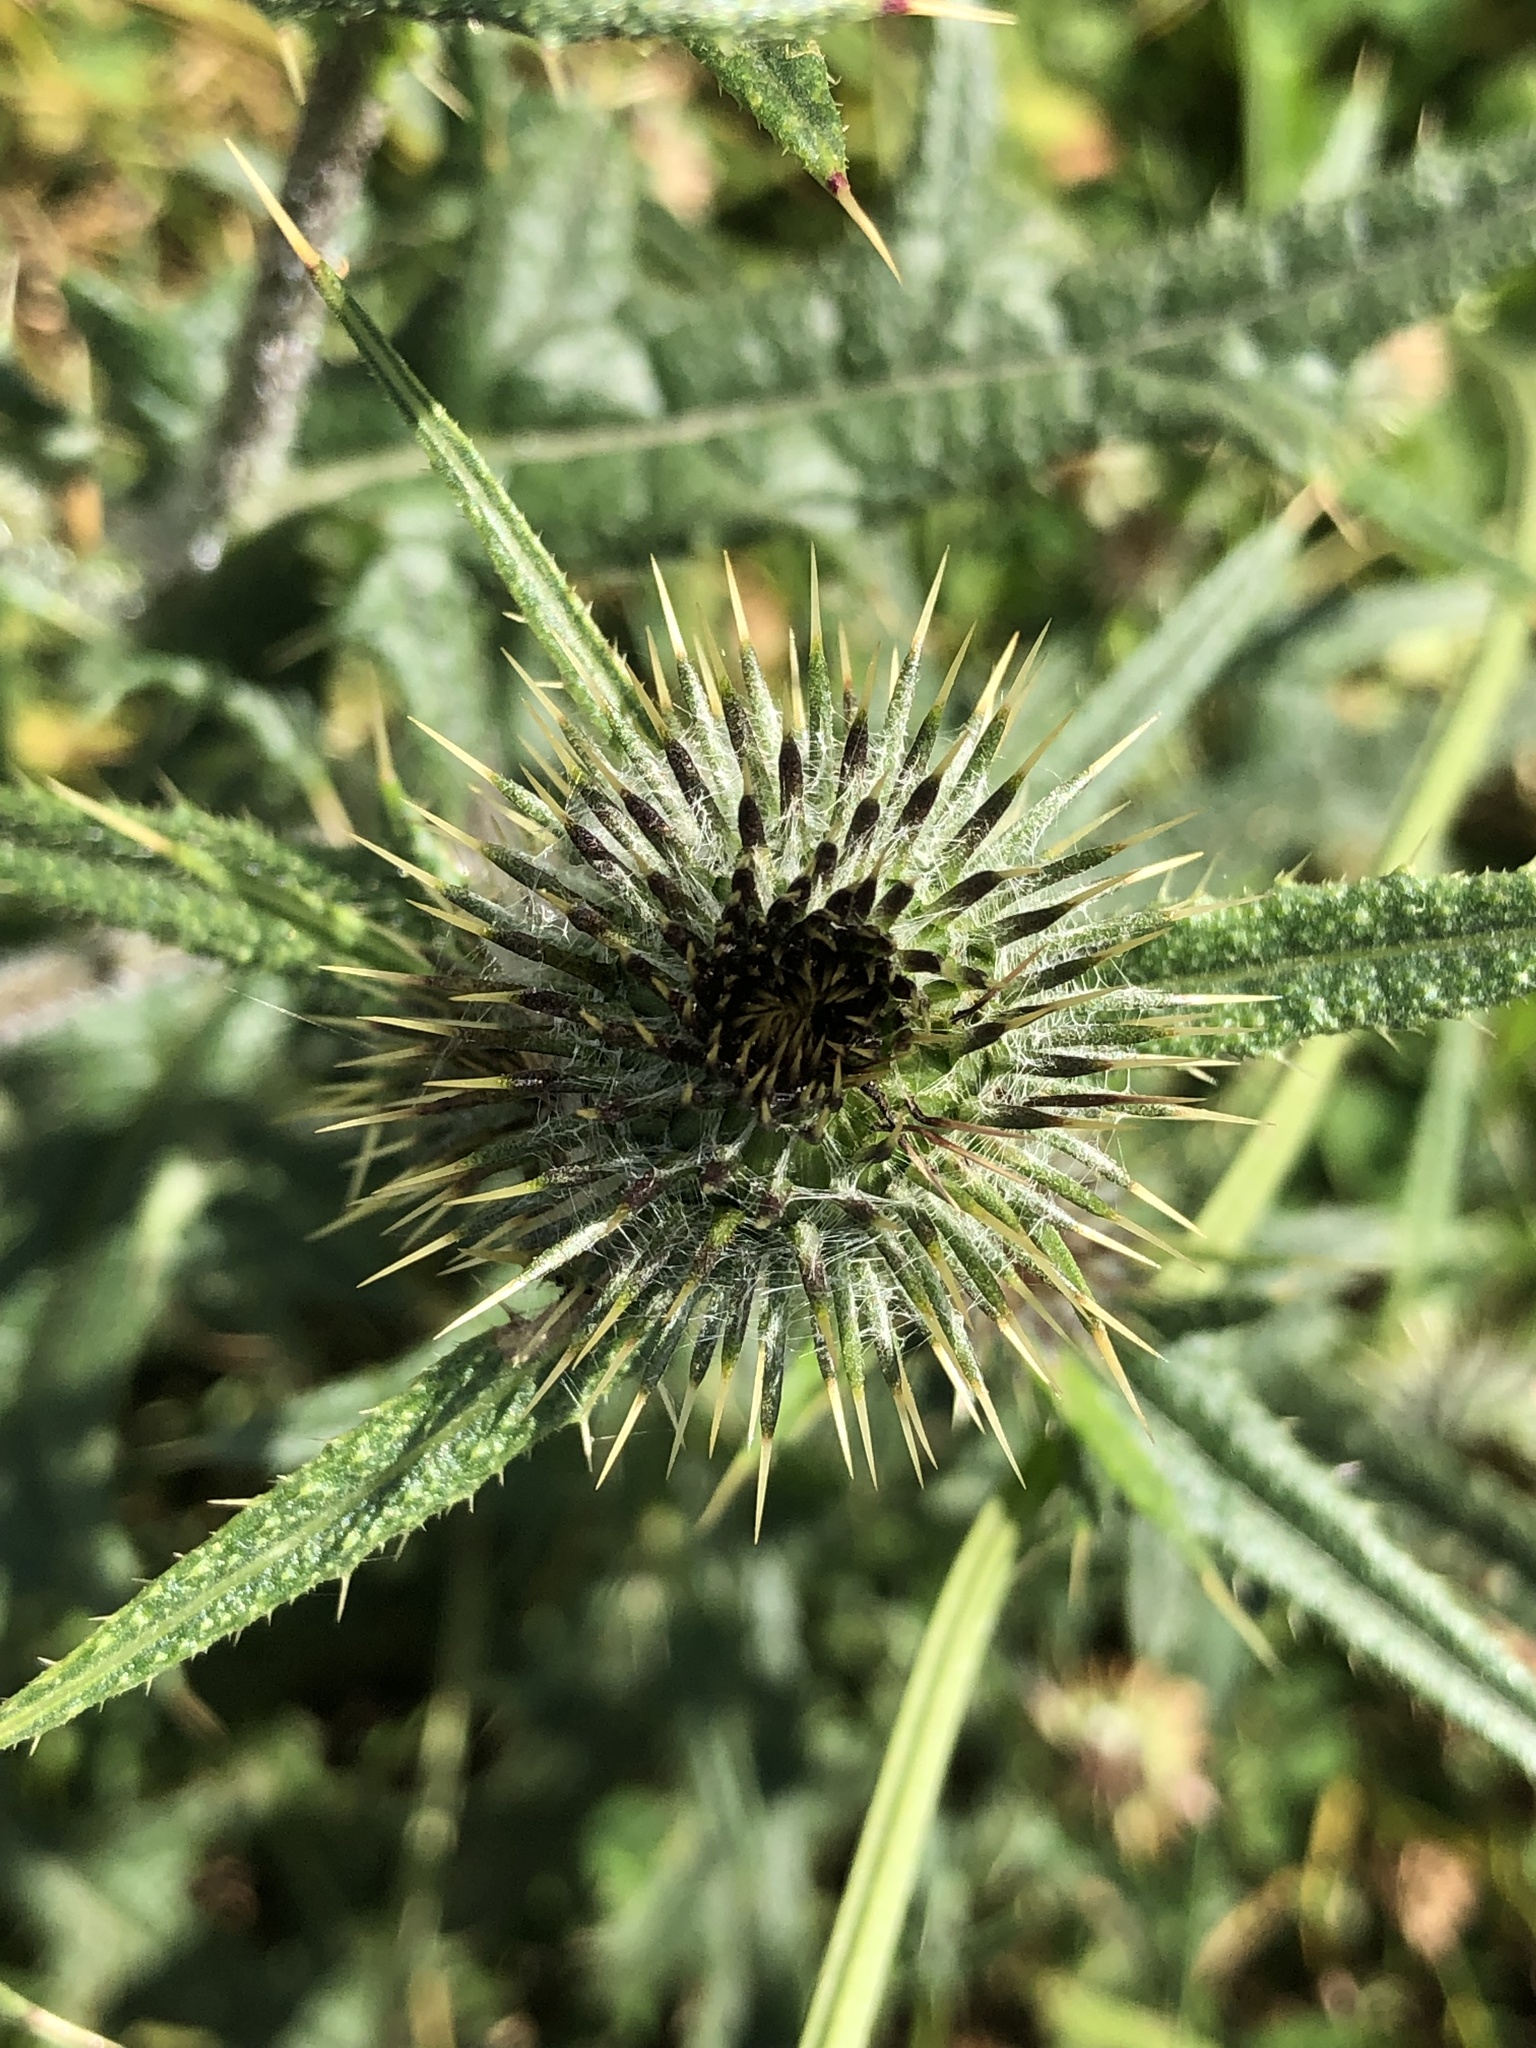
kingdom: Plantae
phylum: Tracheophyta
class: Magnoliopsida
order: Asterales
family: Asteraceae
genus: Cirsium
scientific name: Cirsium vulgare
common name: Bull thistle
